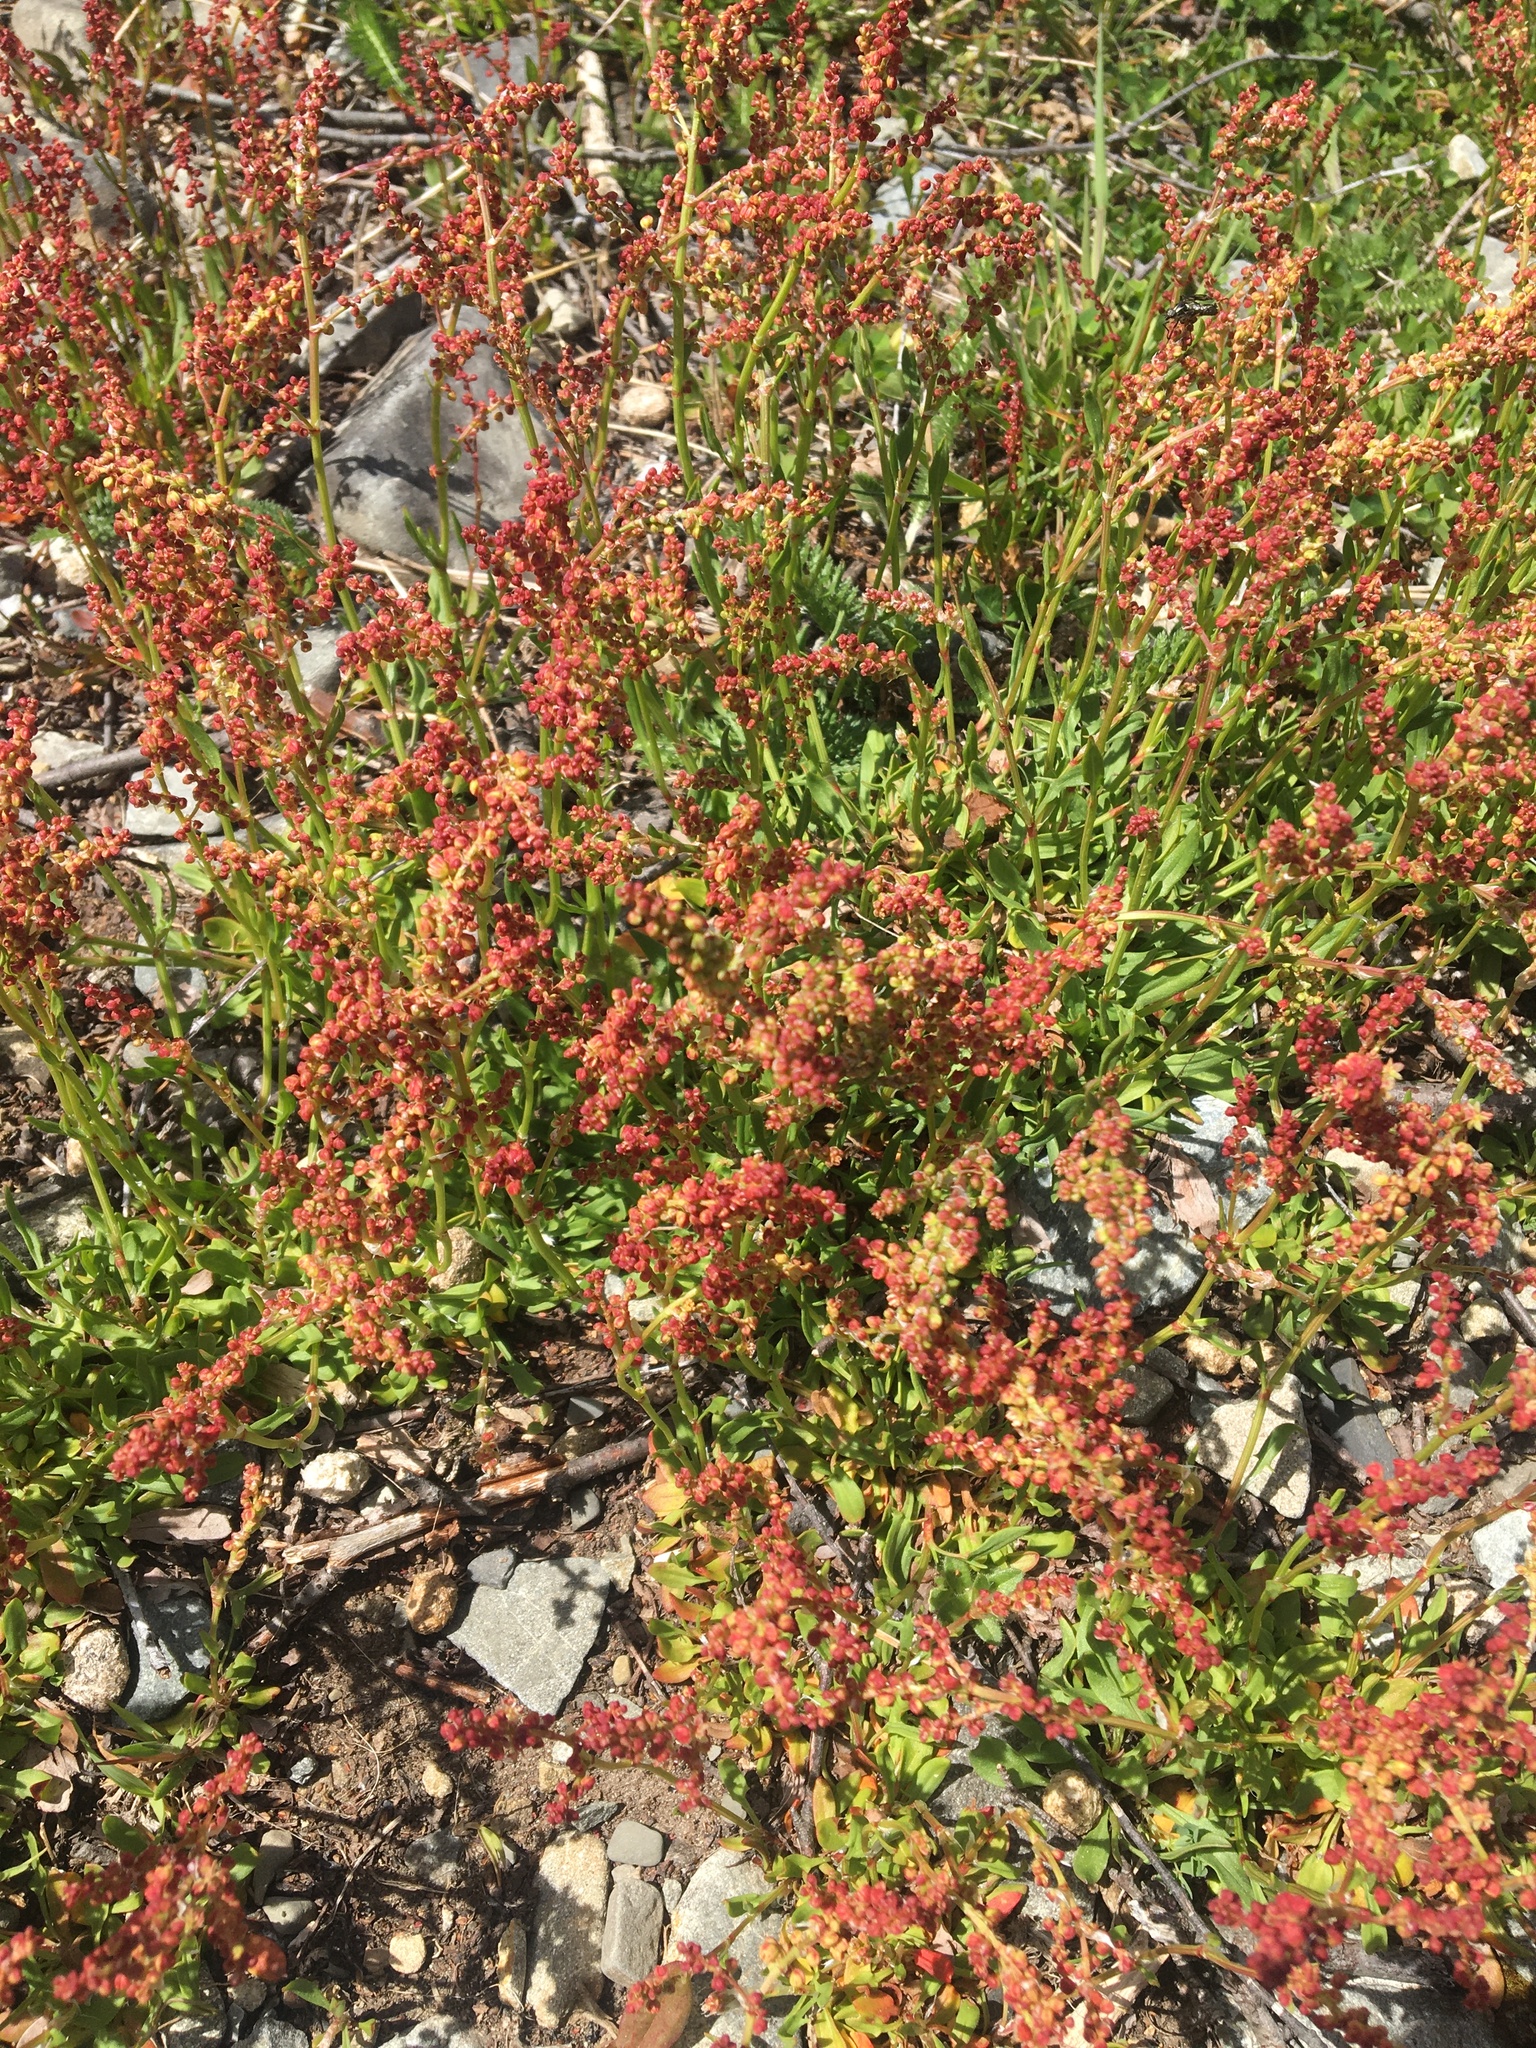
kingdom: Plantae
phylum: Tracheophyta
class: Magnoliopsida
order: Caryophyllales
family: Polygonaceae
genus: Rumex
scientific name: Rumex acetosella
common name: Common sheep sorrel
